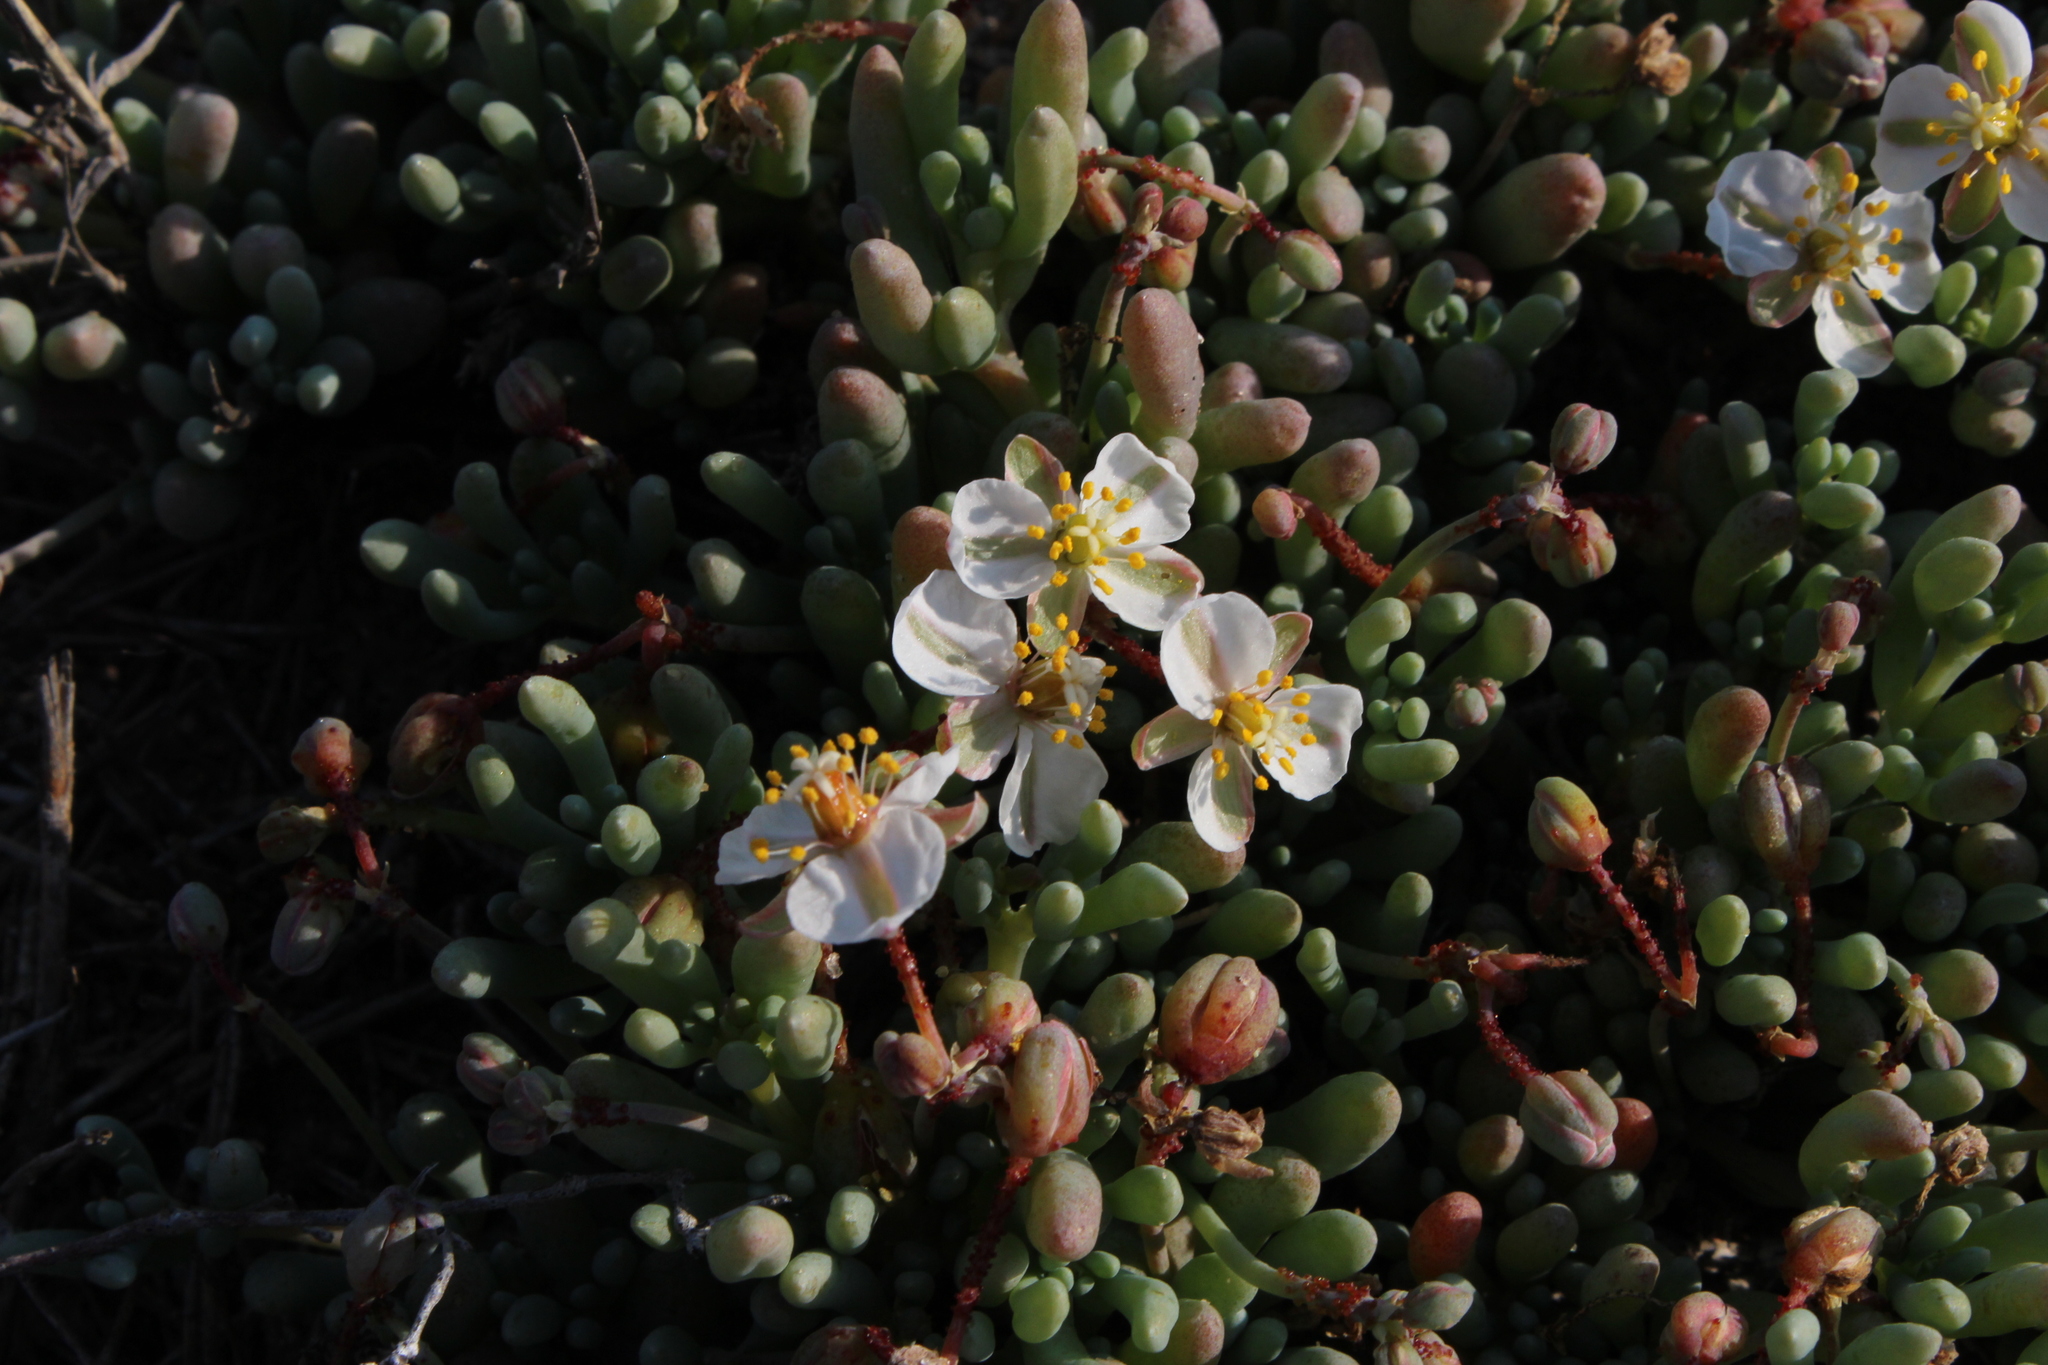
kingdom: Plantae
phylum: Tracheophyta
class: Magnoliopsida
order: Caryophyllales
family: Kewaceae
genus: Kewa
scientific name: Kewa angrae-pequenae
